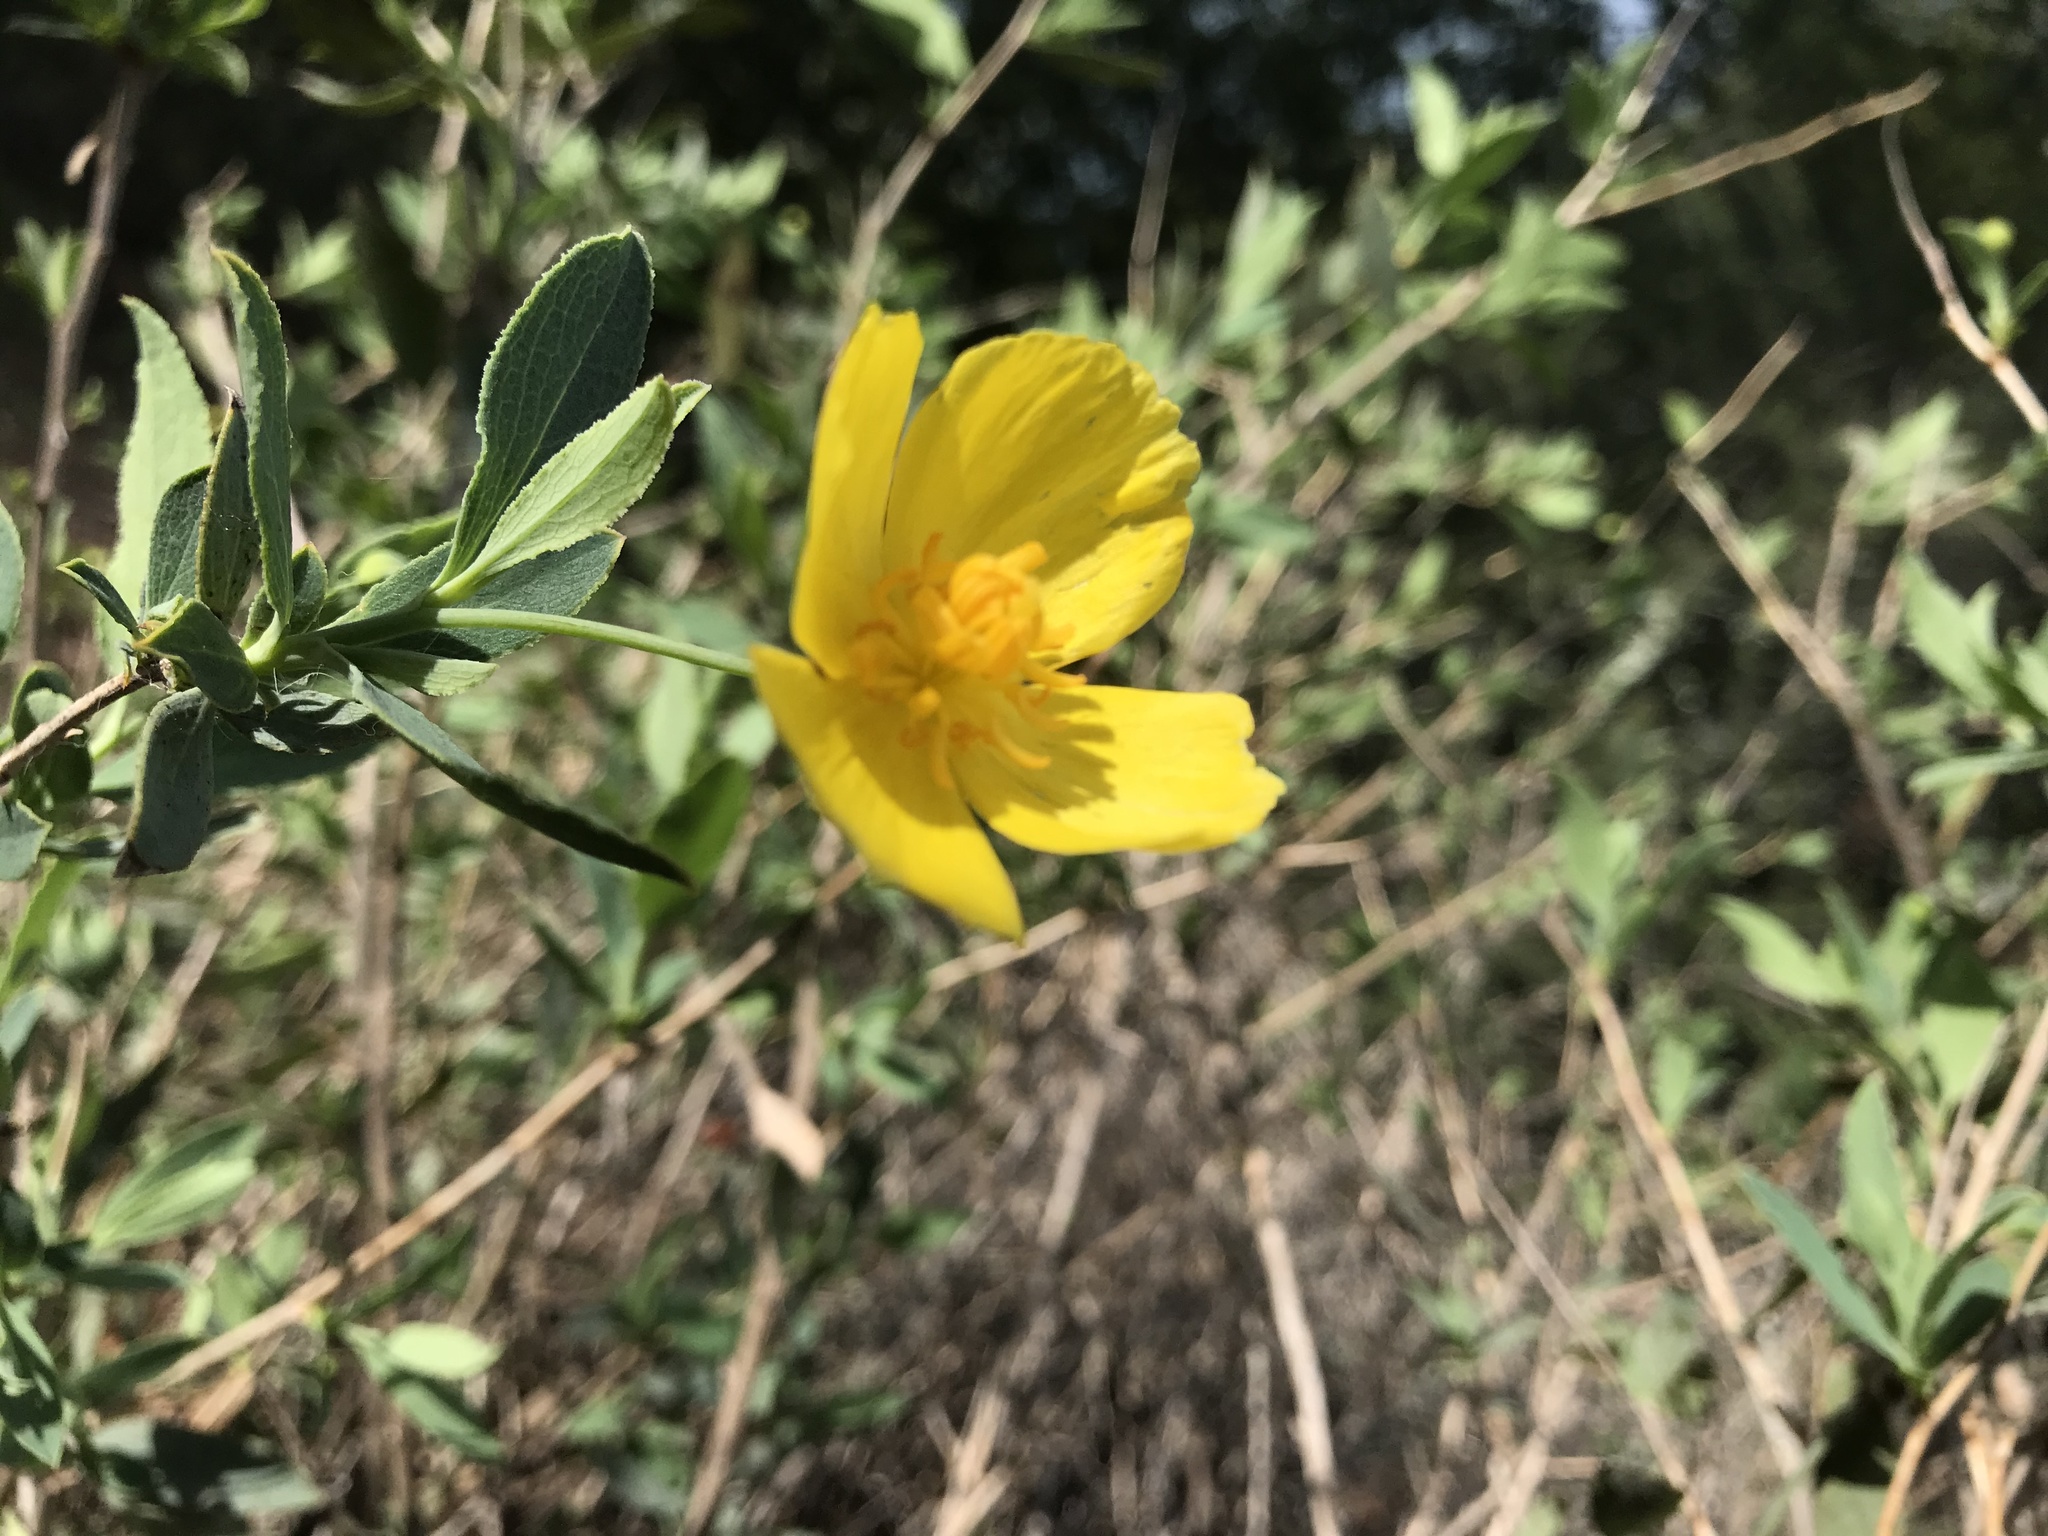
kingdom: Plantae
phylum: Tracheophyta
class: Magnoliopsida
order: Ranunculales
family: Papaveraceae
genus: Dendromecon
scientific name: Dendromecon rigida
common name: Tree poppy
